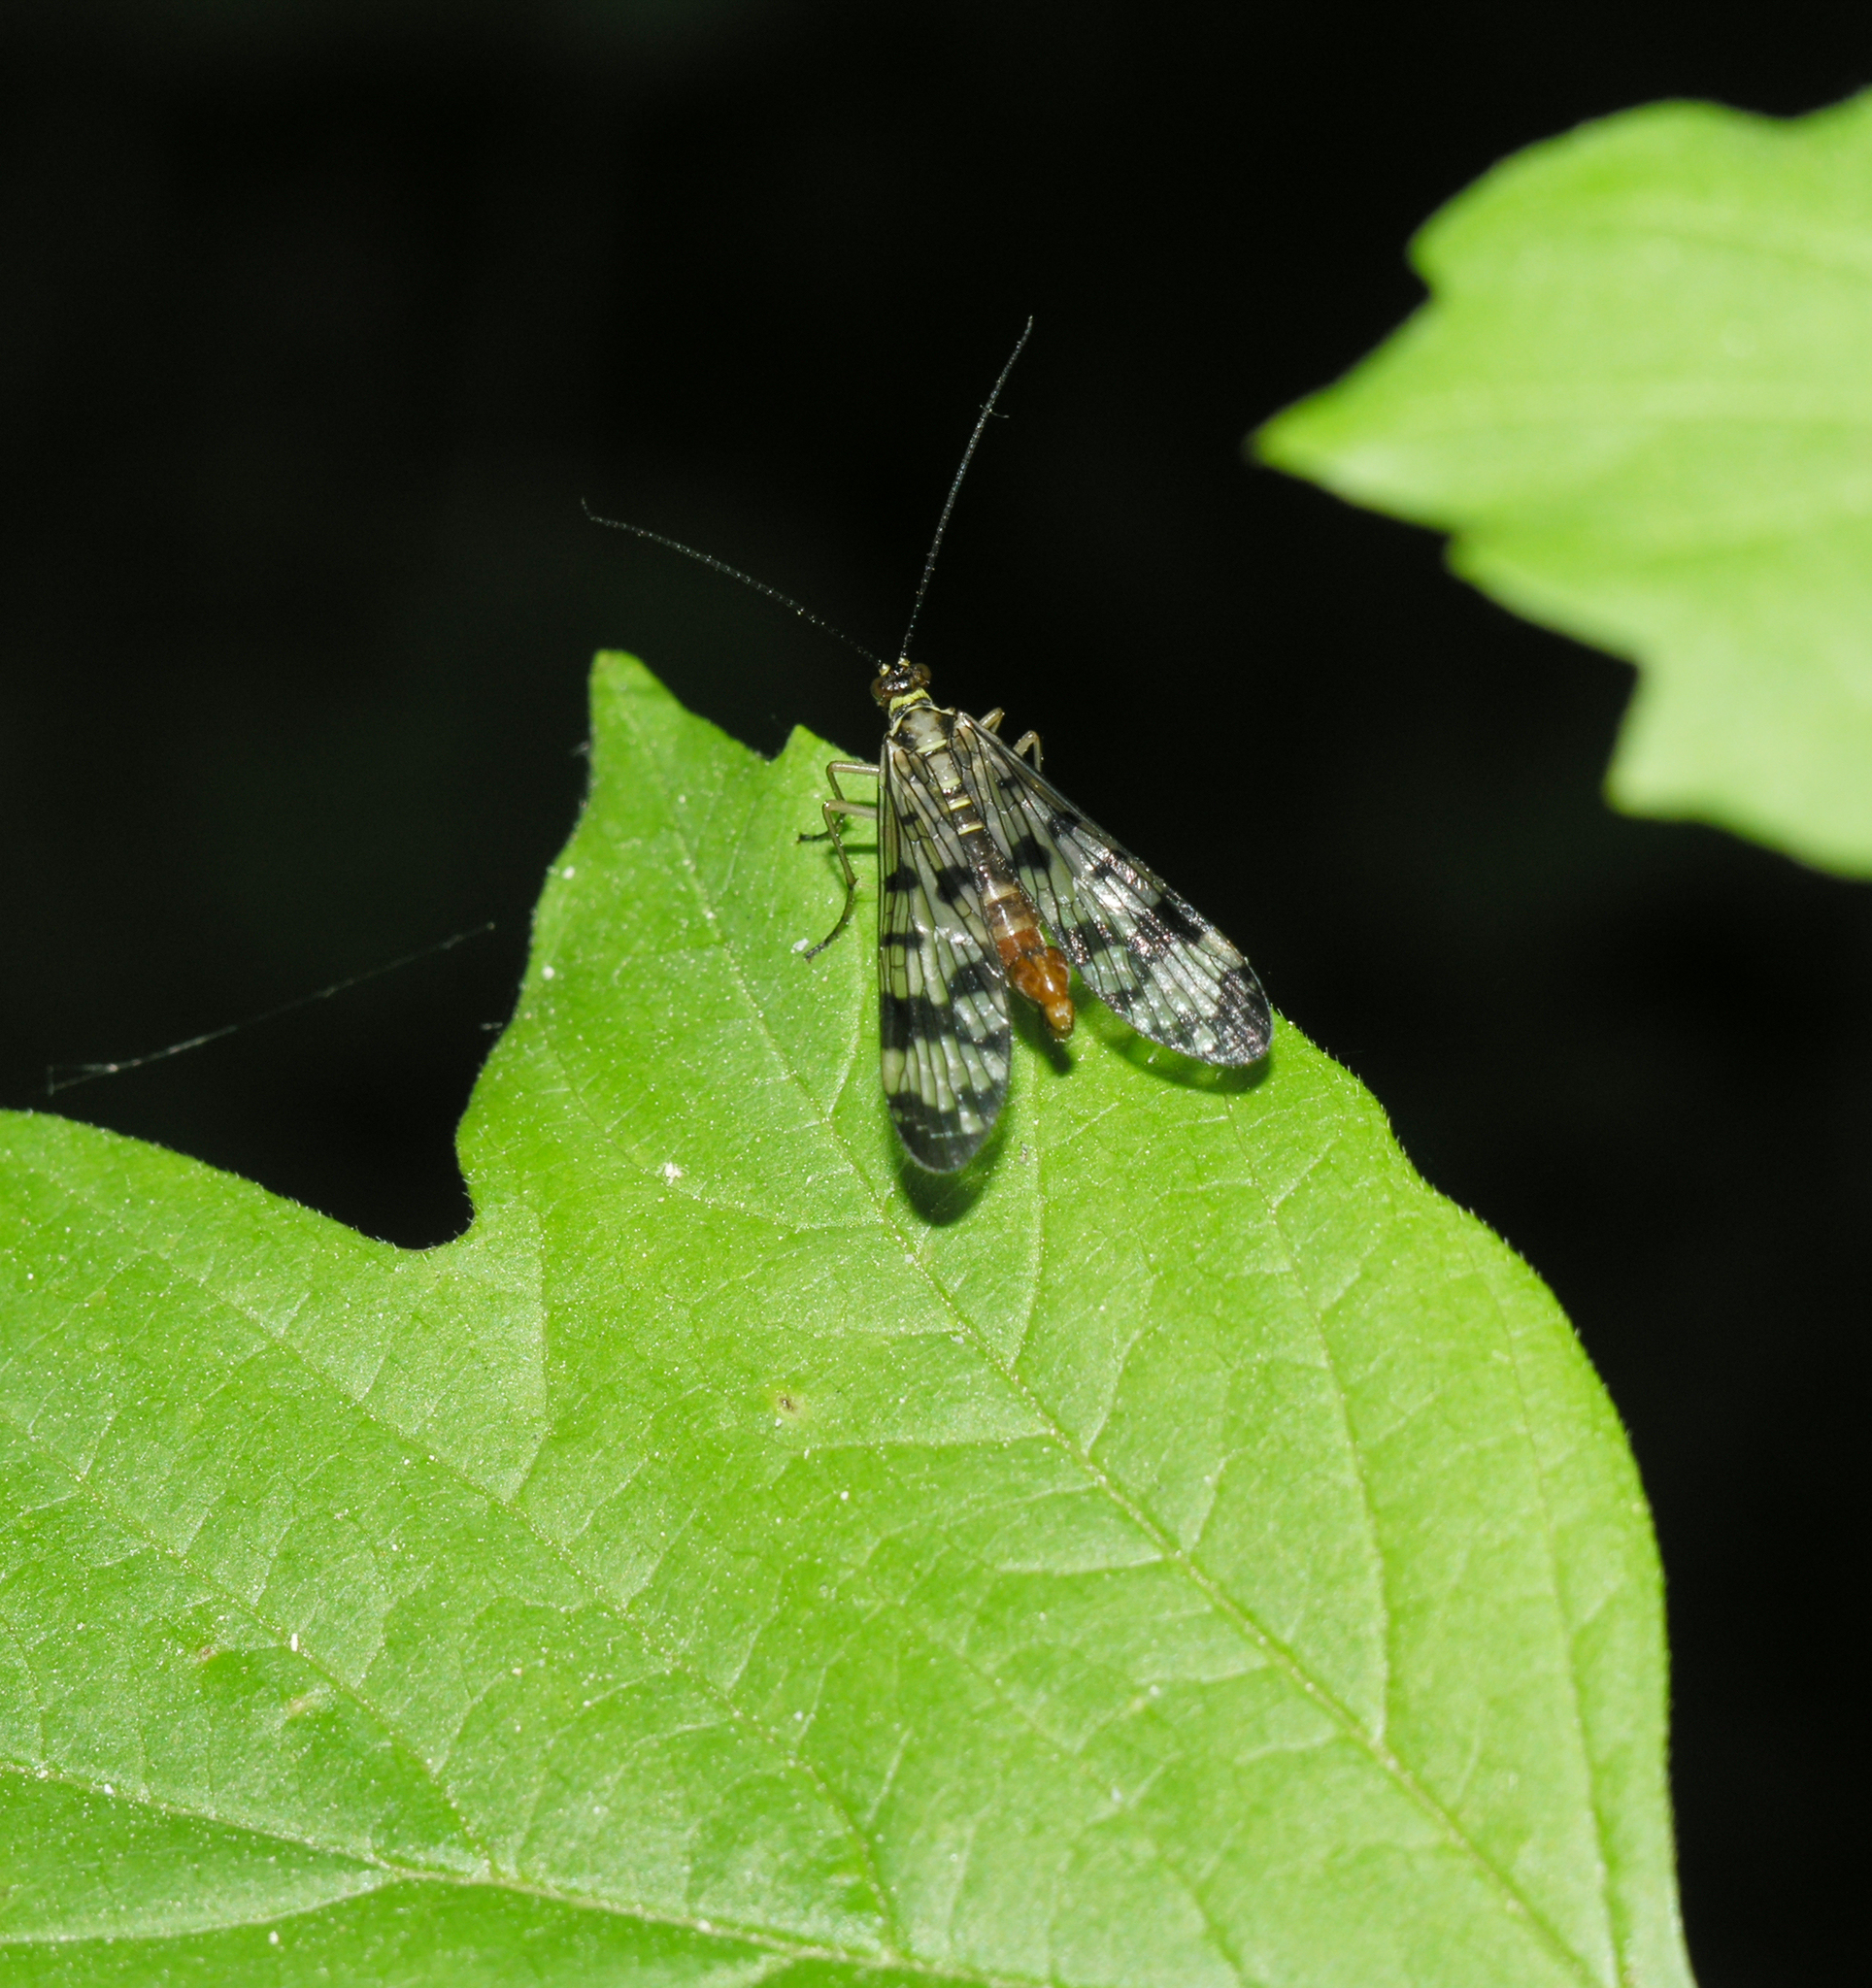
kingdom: Animalia
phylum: Arthropoda
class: Insecta
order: Mecoptera
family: Panorpidae
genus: Panorpa
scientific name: Panorpa communis
